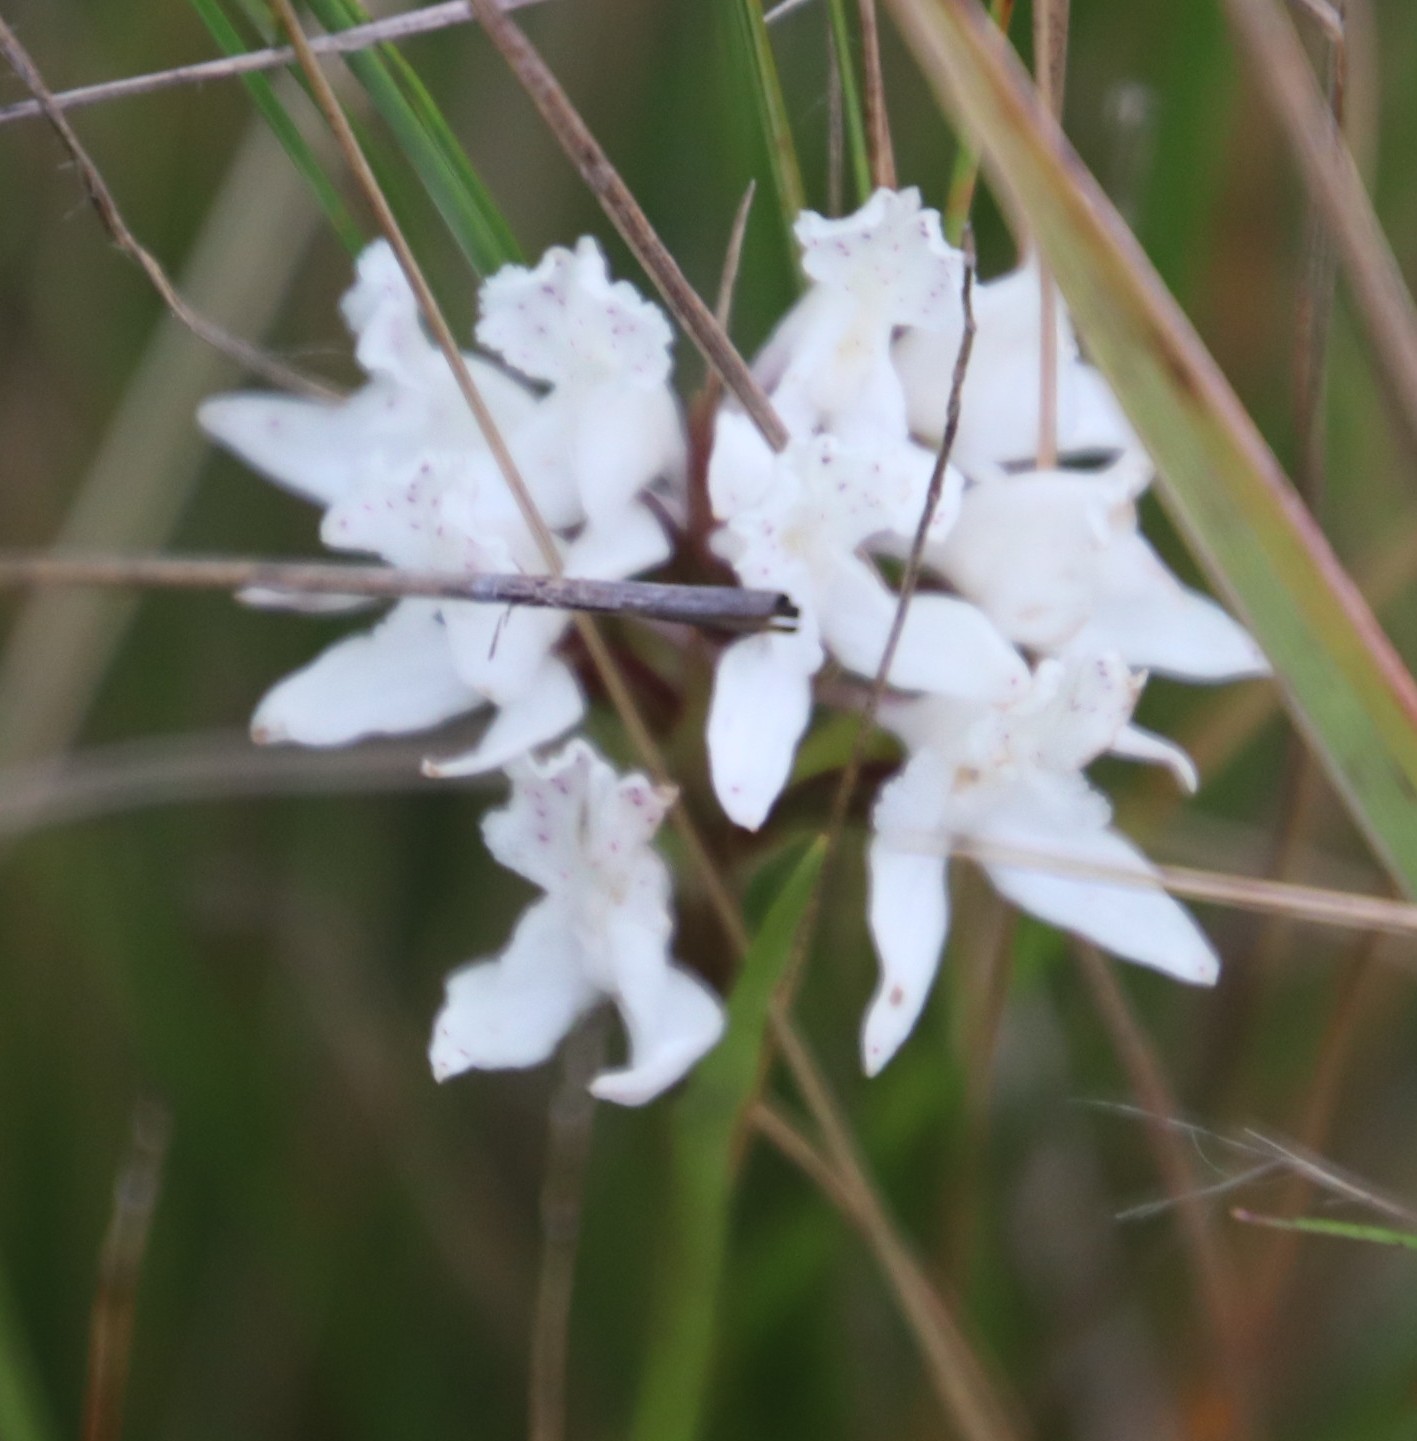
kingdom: Plantae
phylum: Tracheophyta
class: Liliopsida
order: Asparagales
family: Orchidaceae
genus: Brownleea
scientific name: Brownleea galpinii
